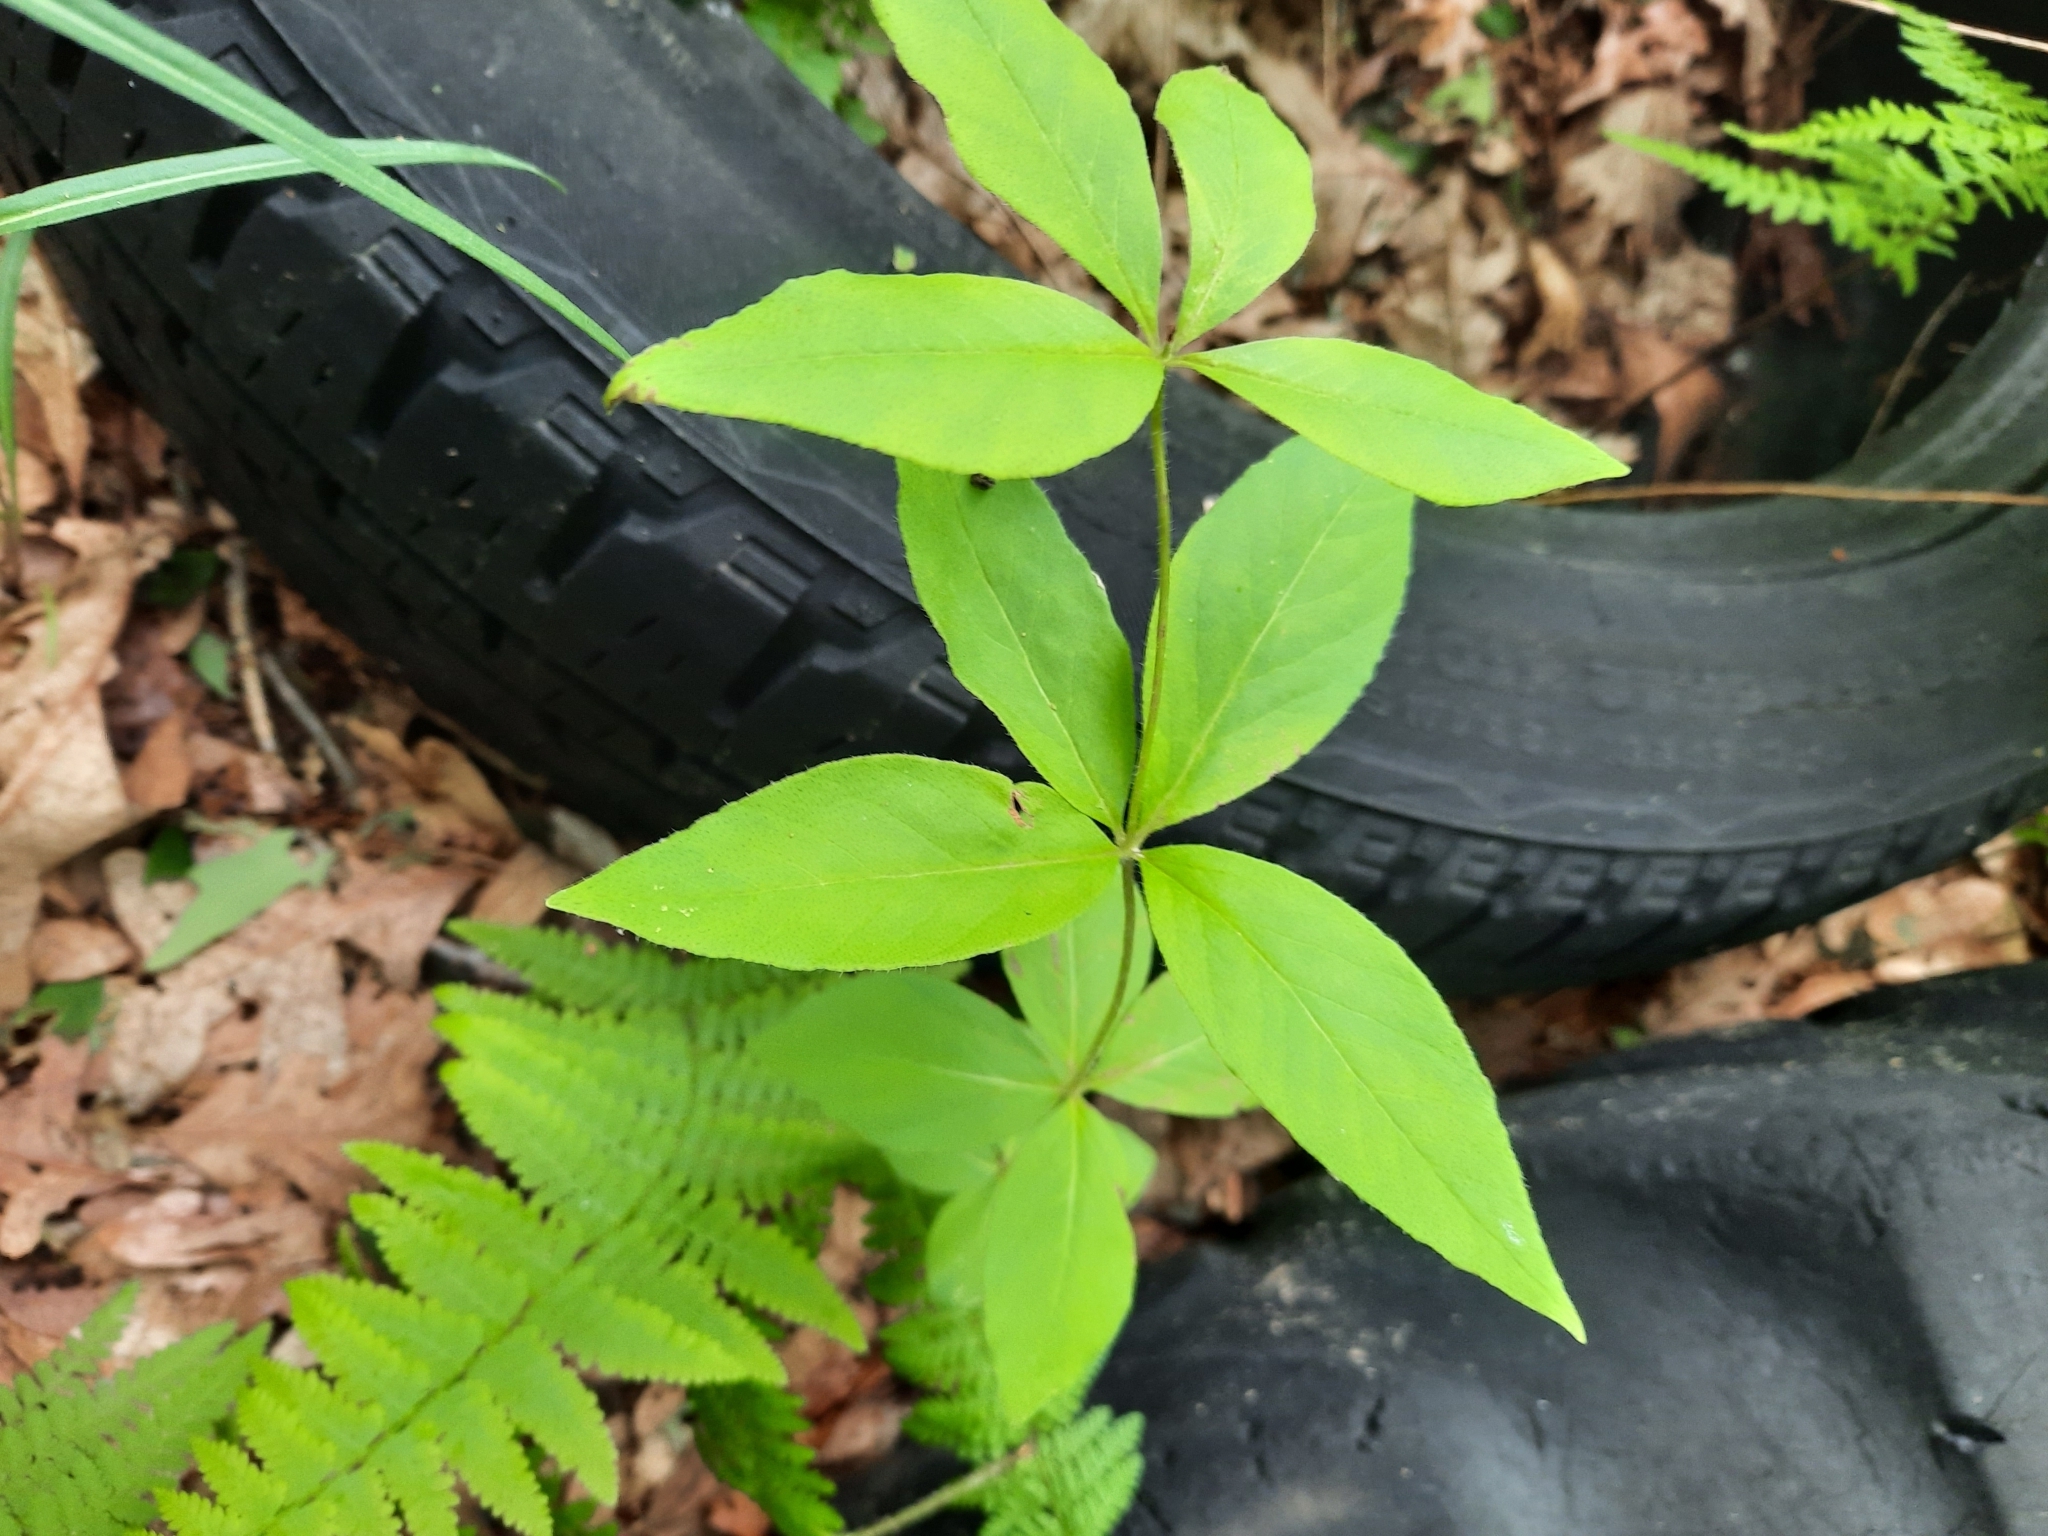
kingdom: Plantae
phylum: Tracheophyta
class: Magnoliopsida
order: Ericales
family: Primulaceae
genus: Lysimachia
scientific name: Lysimachia quadrifolia
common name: Whorled loosestrife
